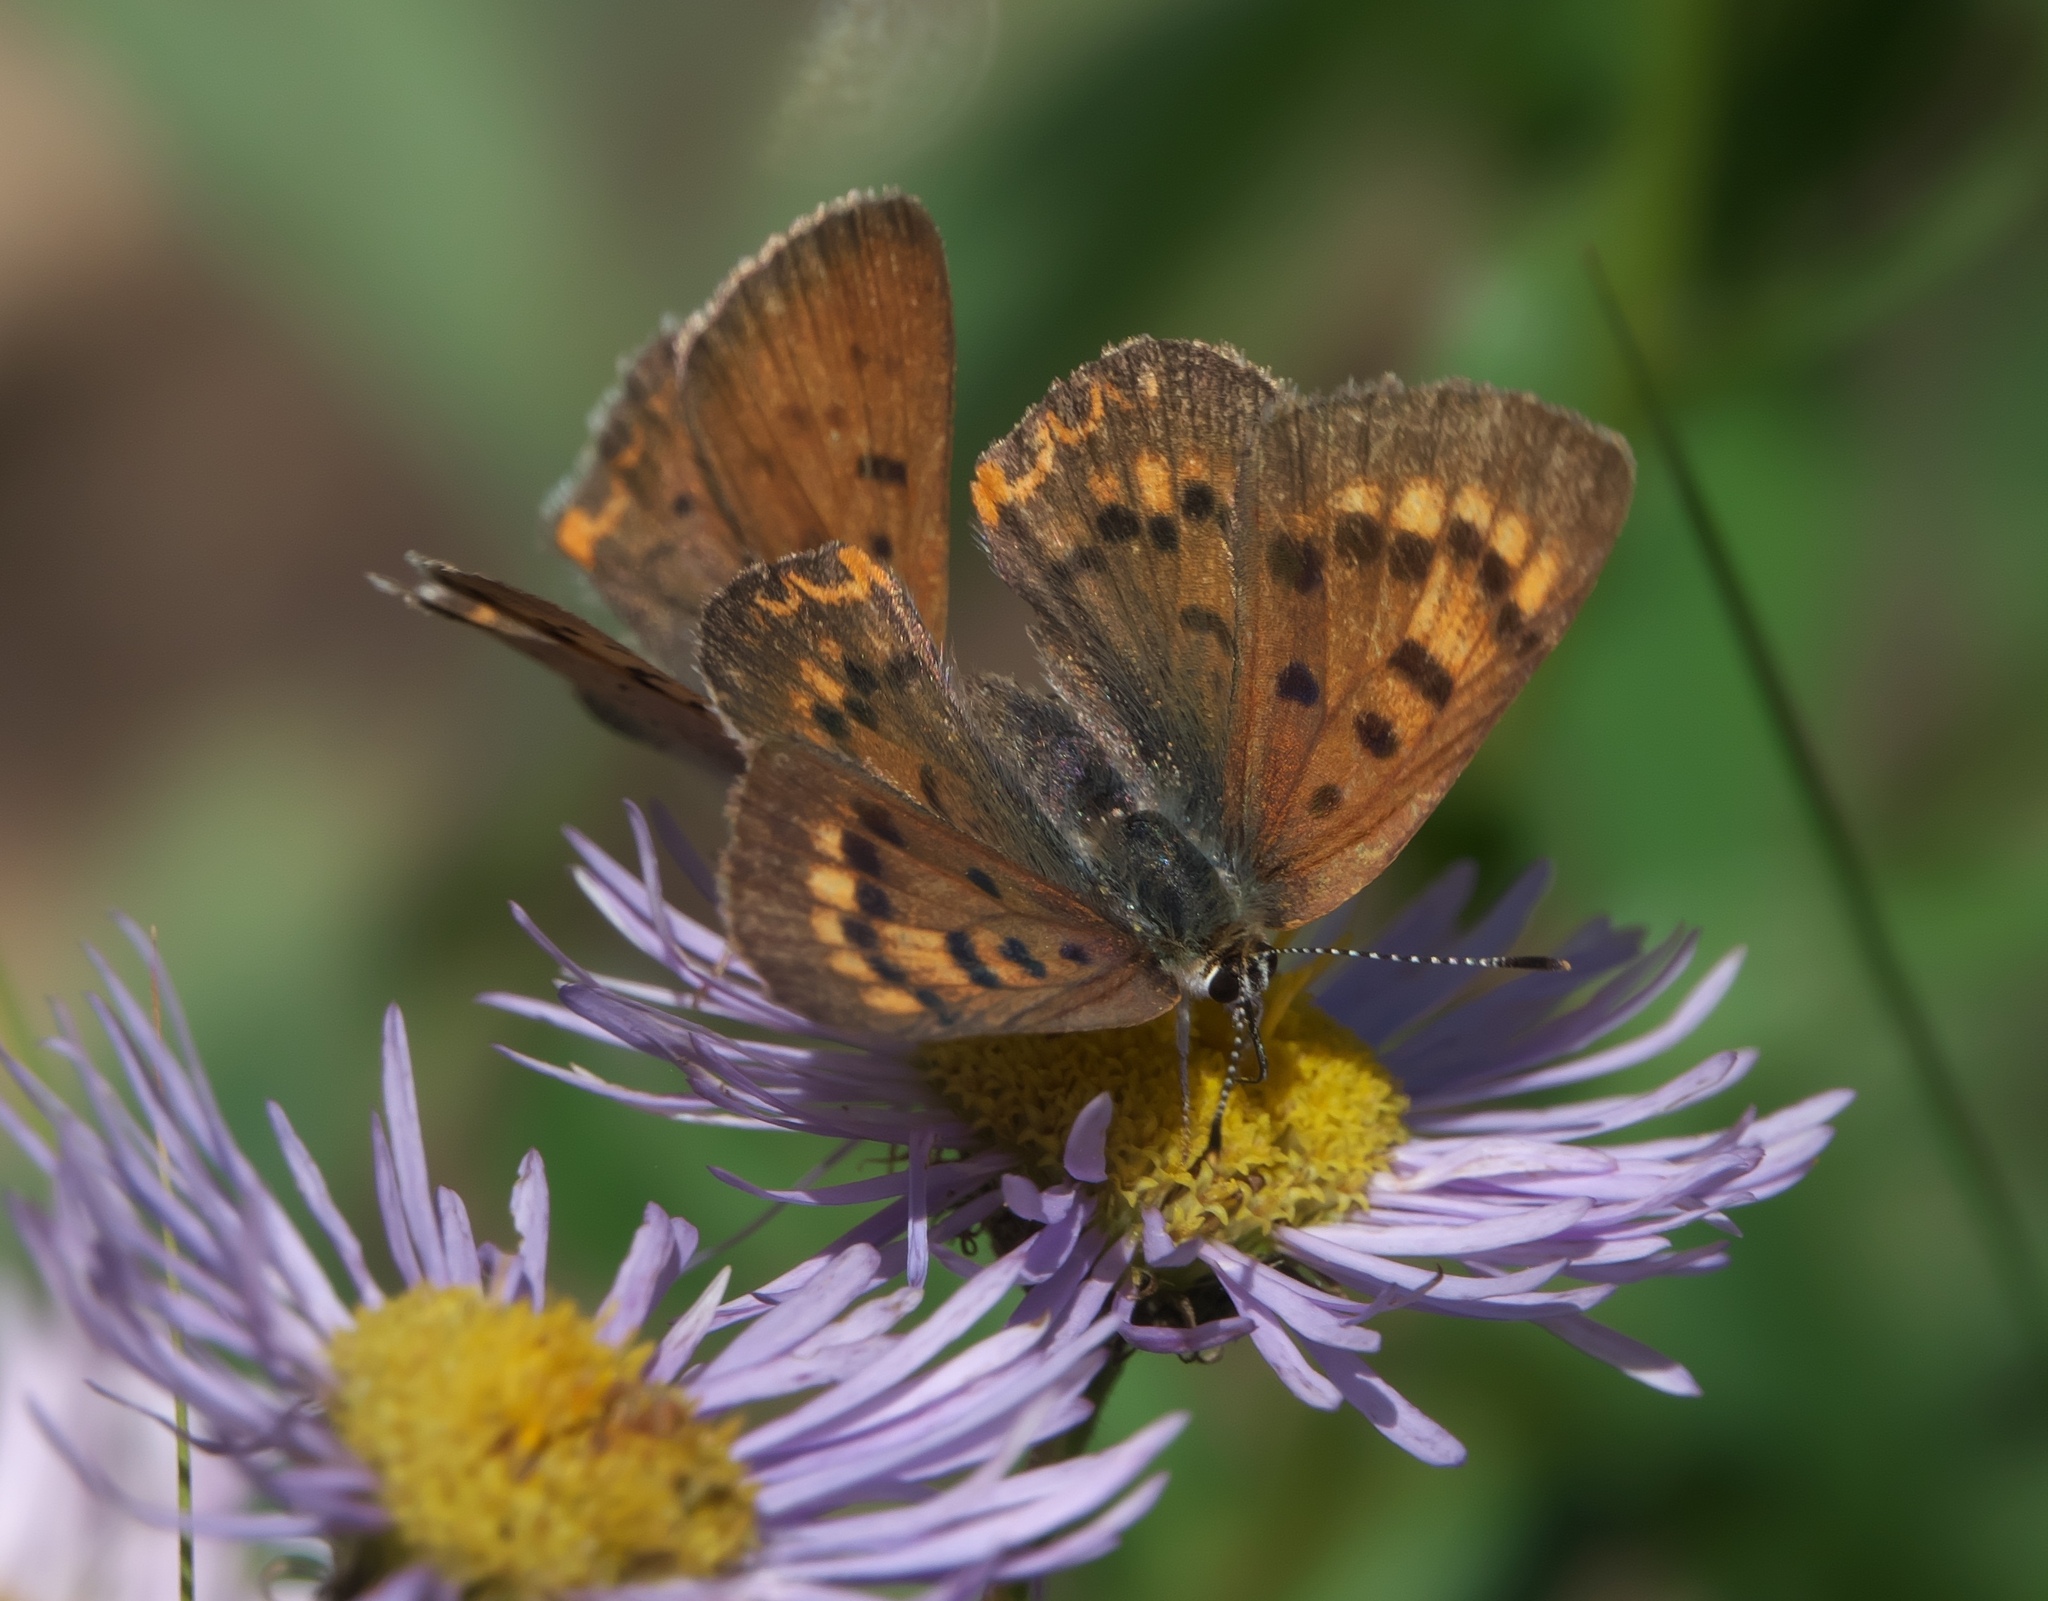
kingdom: Animalia
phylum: Arthropoda
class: Insecta
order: Lepidoptera
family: Lycaenidae
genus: Tharsalea
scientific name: Tharsalea dorcas
